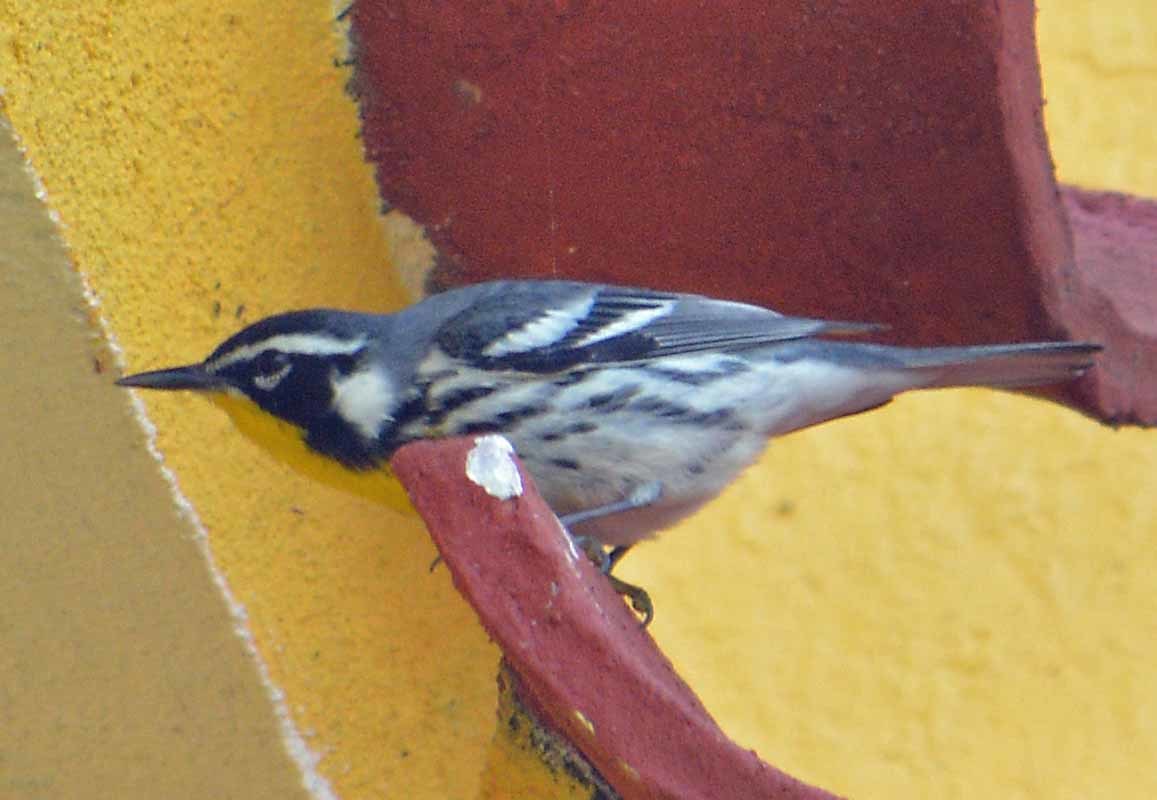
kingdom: Animalia
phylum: Chordata
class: Aves
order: Passeriformes
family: Parulidae
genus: Setophaga
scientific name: Setophaga dominica
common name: Yellow-throated warbler
